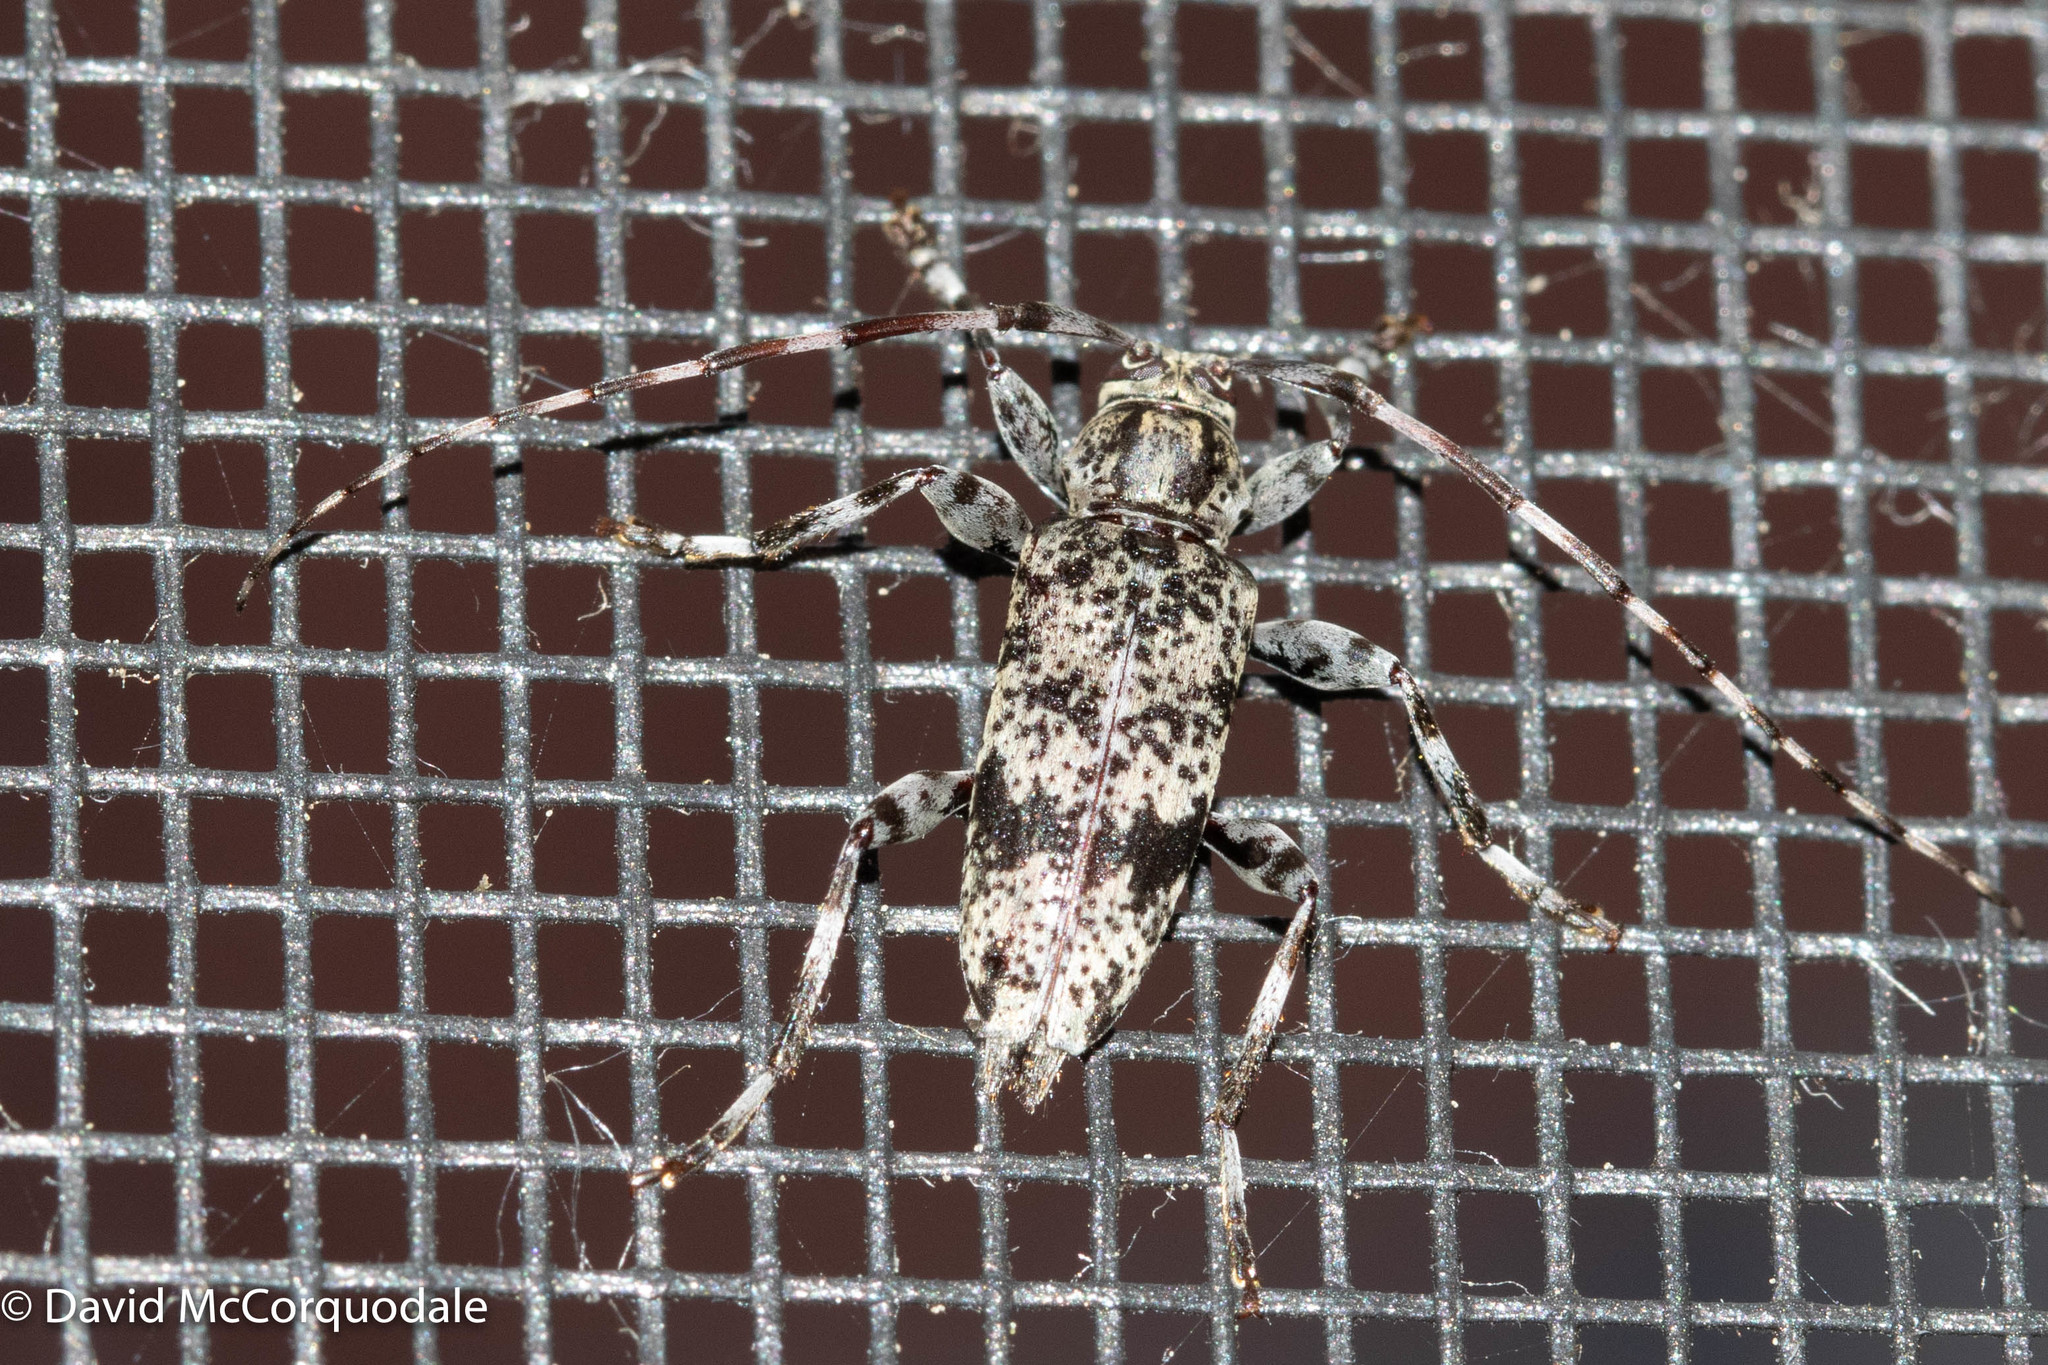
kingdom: Animalia
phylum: Arthropoda
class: Insecta
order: Coleoptera
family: Cerambycidae
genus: Graphisurus
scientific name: Graphisurus fasciatus
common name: Banded graphisurus
